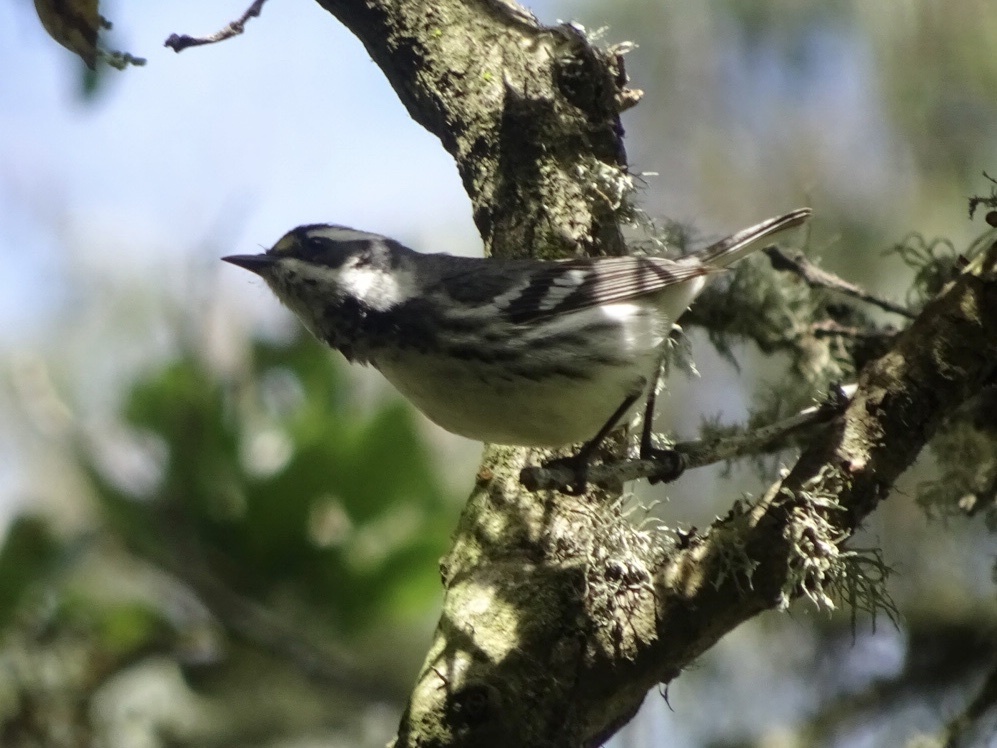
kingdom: Animalia
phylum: Chordata
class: Aves
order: Passeriformes
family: Parulidae
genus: Setophaga
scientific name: Setophaga nigrescens
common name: Black-throated gray warbler
